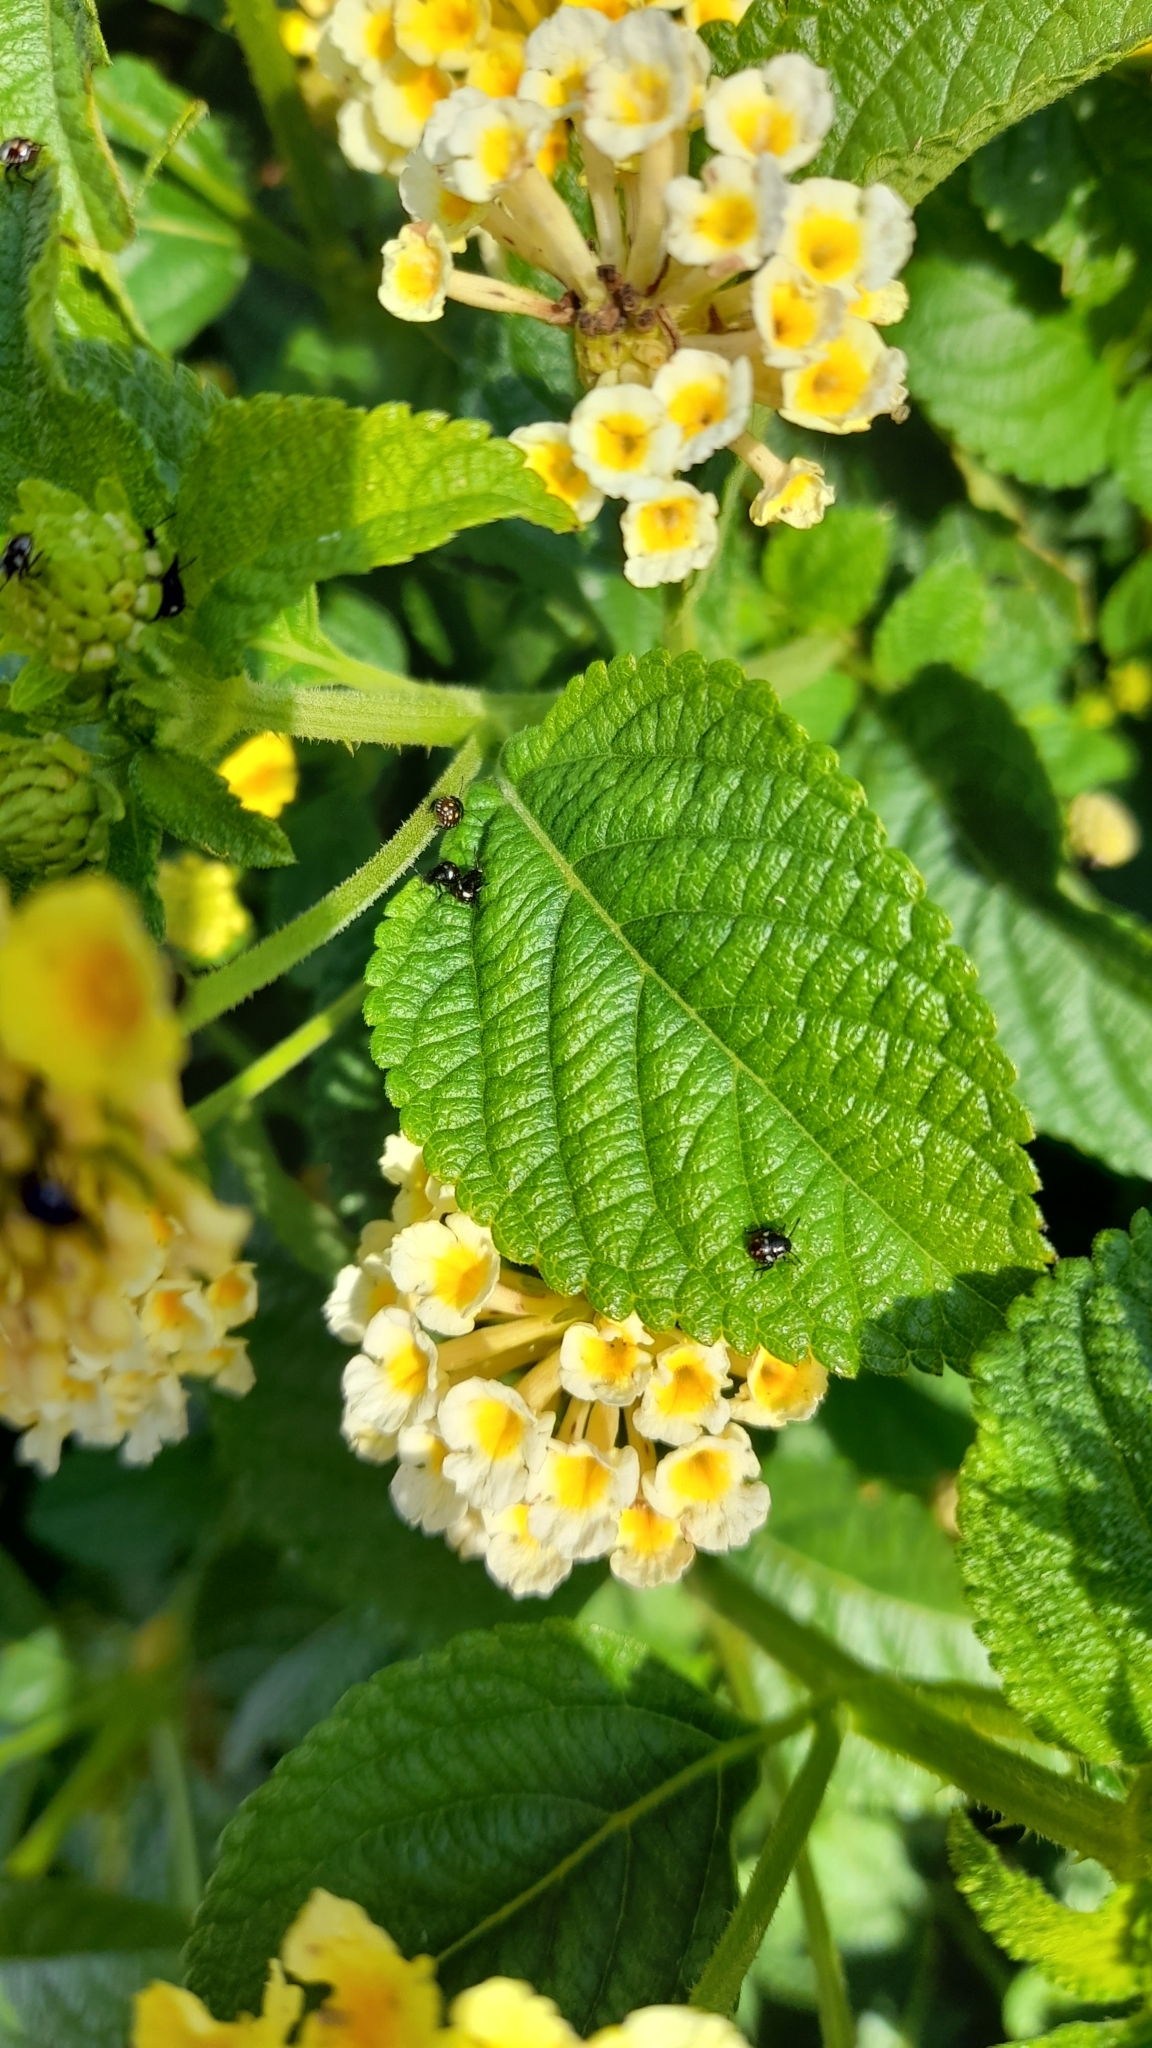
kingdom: Animalia
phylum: Arthropoda
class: Insecta
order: Hemiptera
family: Pentatomidae
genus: Nezara
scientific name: Nezara viridula
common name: Southern green stink bug
